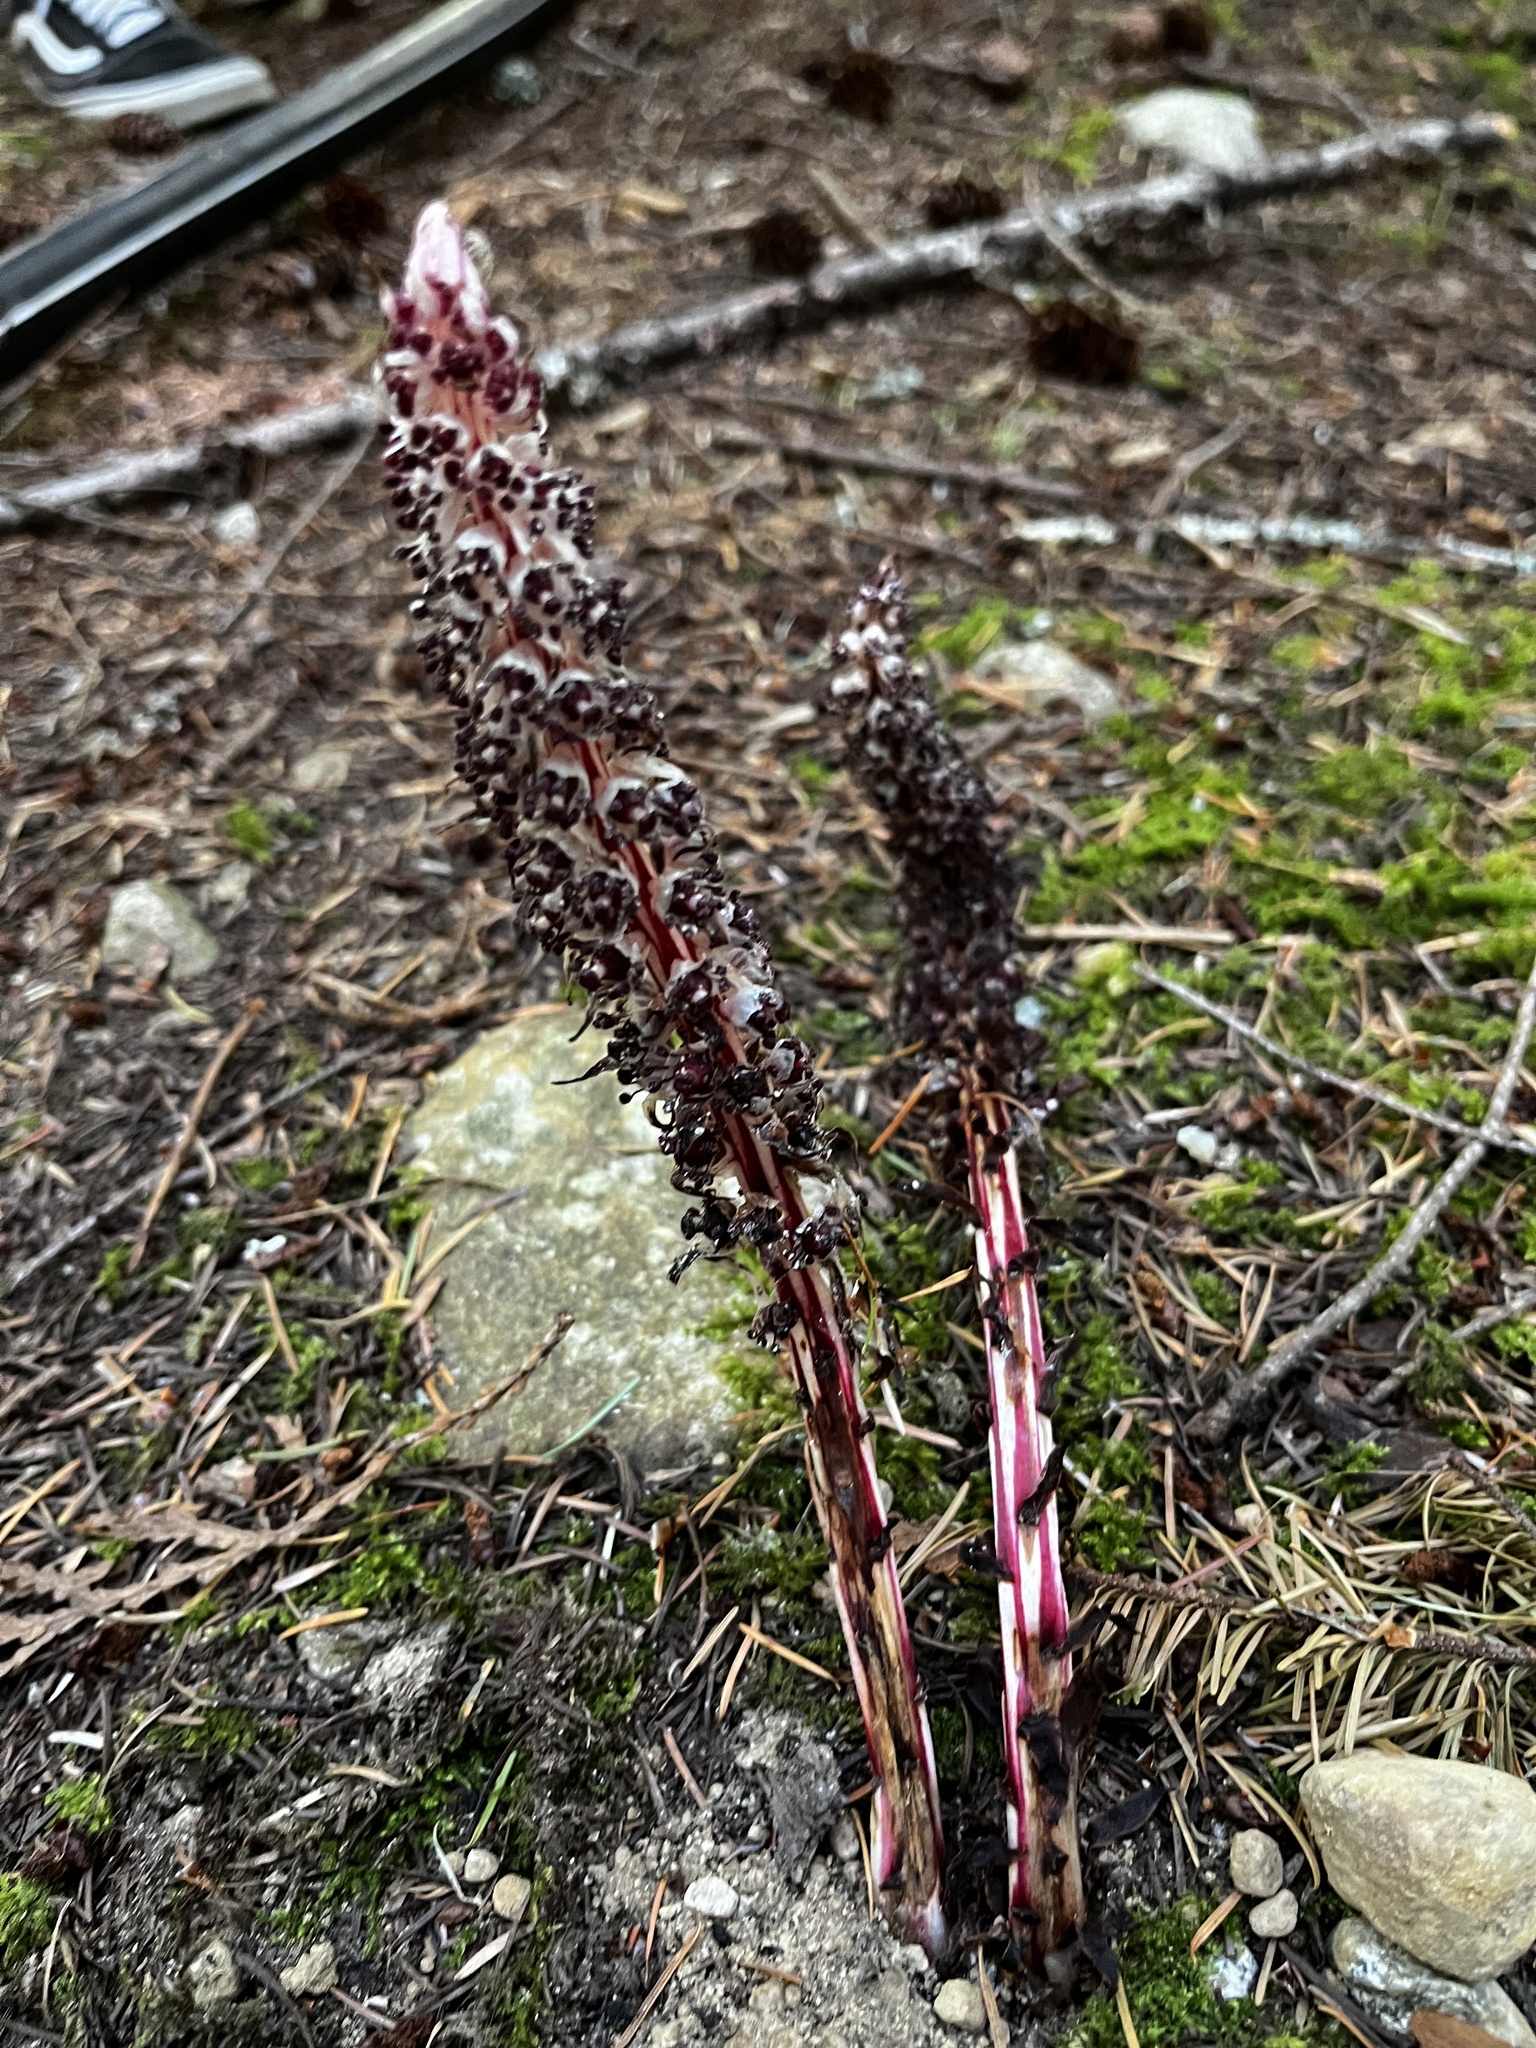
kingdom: Plantae
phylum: Tracheophyta
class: Magnoliopsida
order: Ericales
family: Ericaceae
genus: Allotropa
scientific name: Allotropa virgata
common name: Candy-striped allotropa
